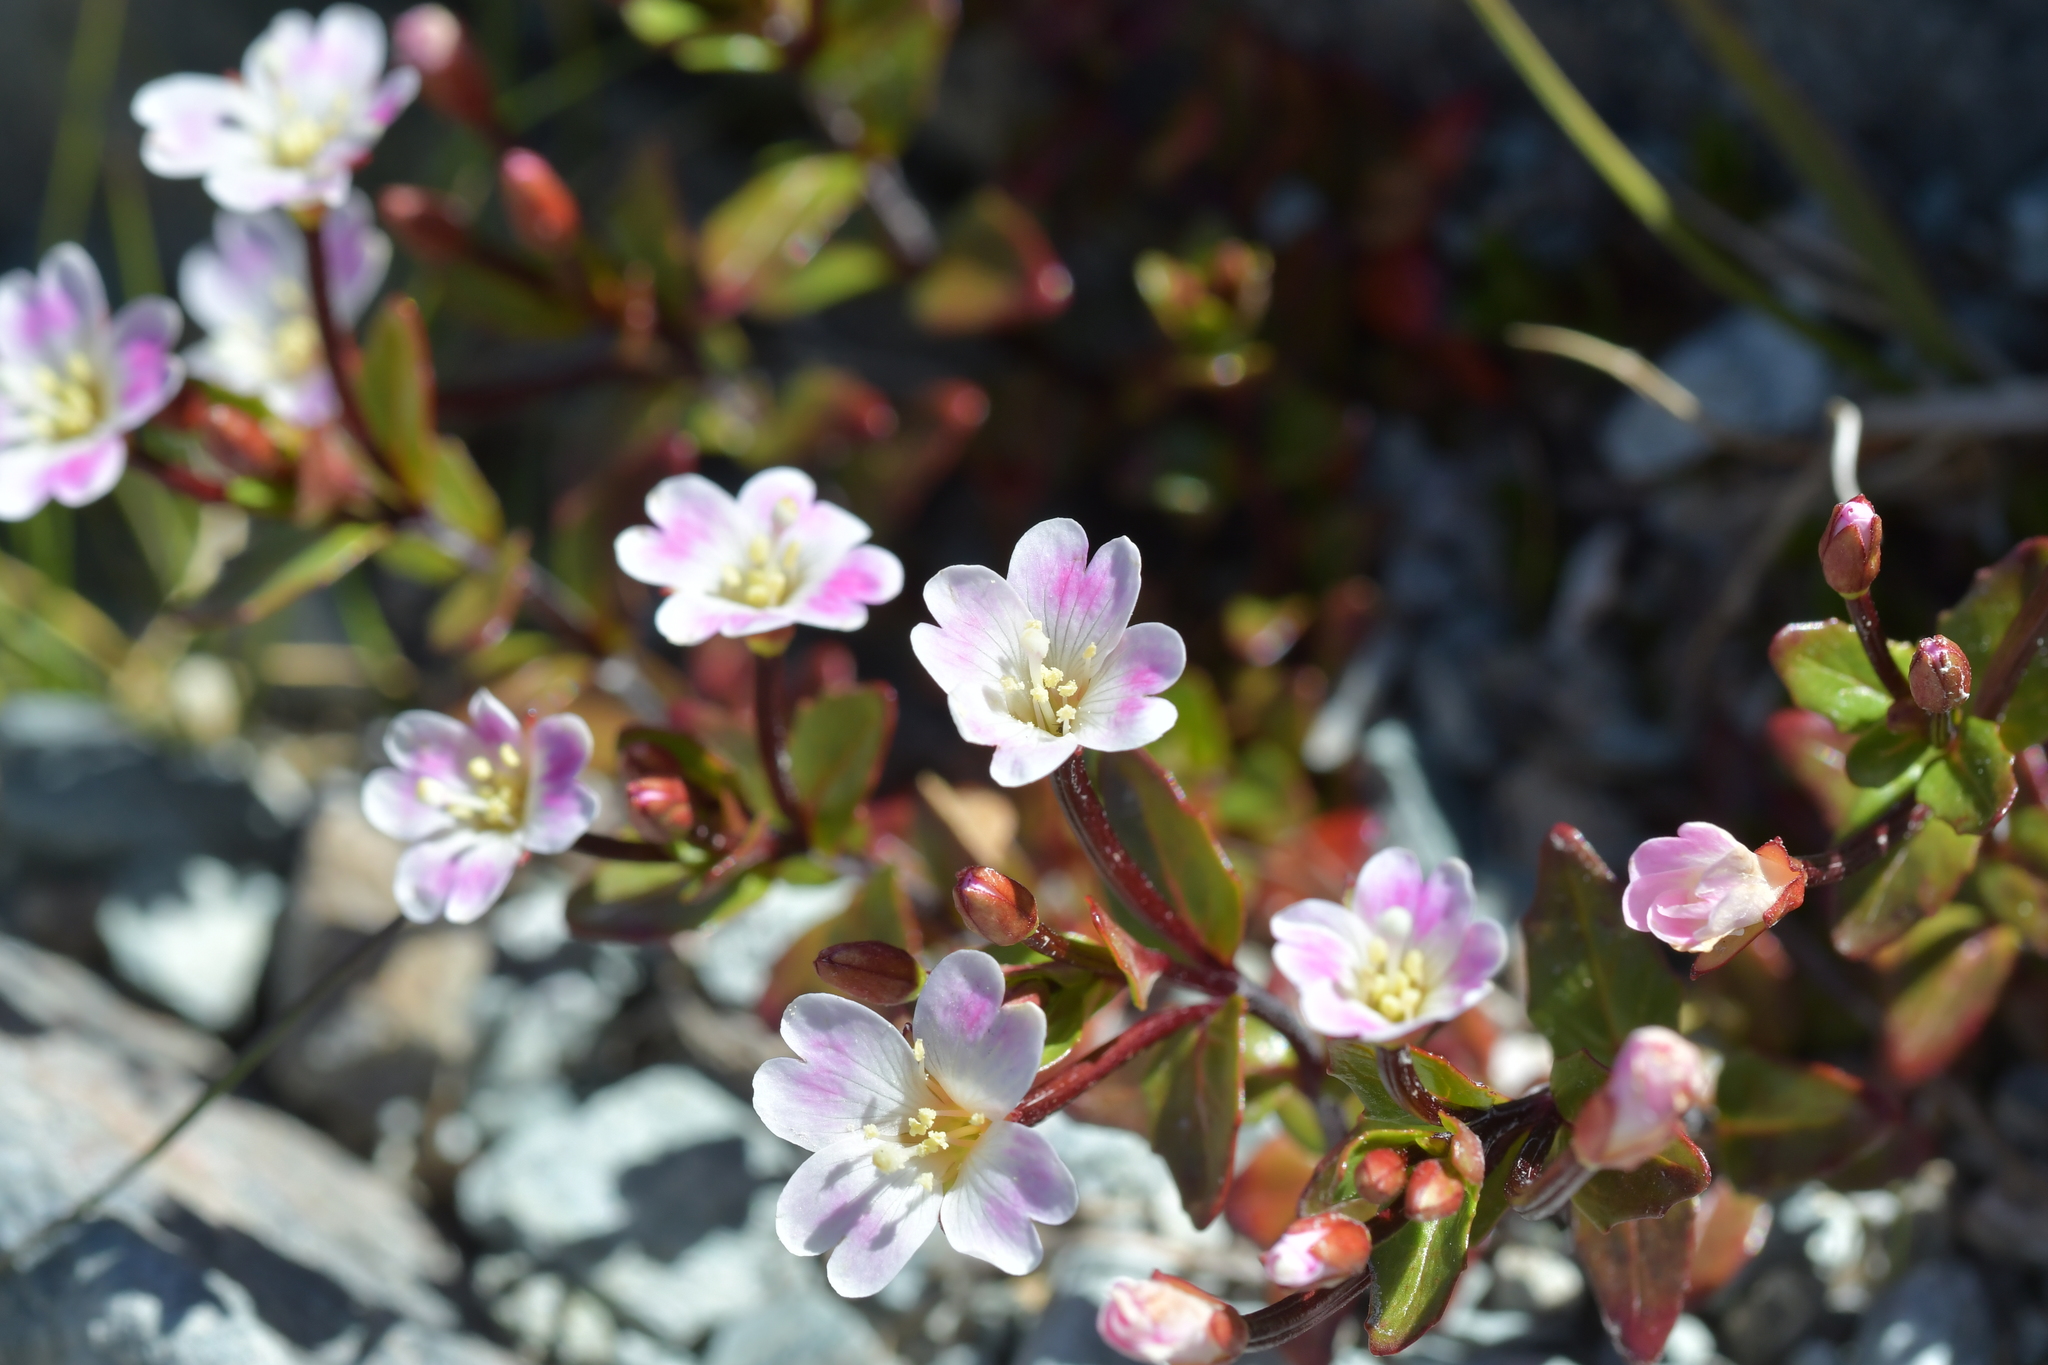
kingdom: Plantae
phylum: Tracheophyta
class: Magnoliopsida
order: Myrtales
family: Onagraceae
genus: Epilobium
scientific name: Epilobium glabellum
